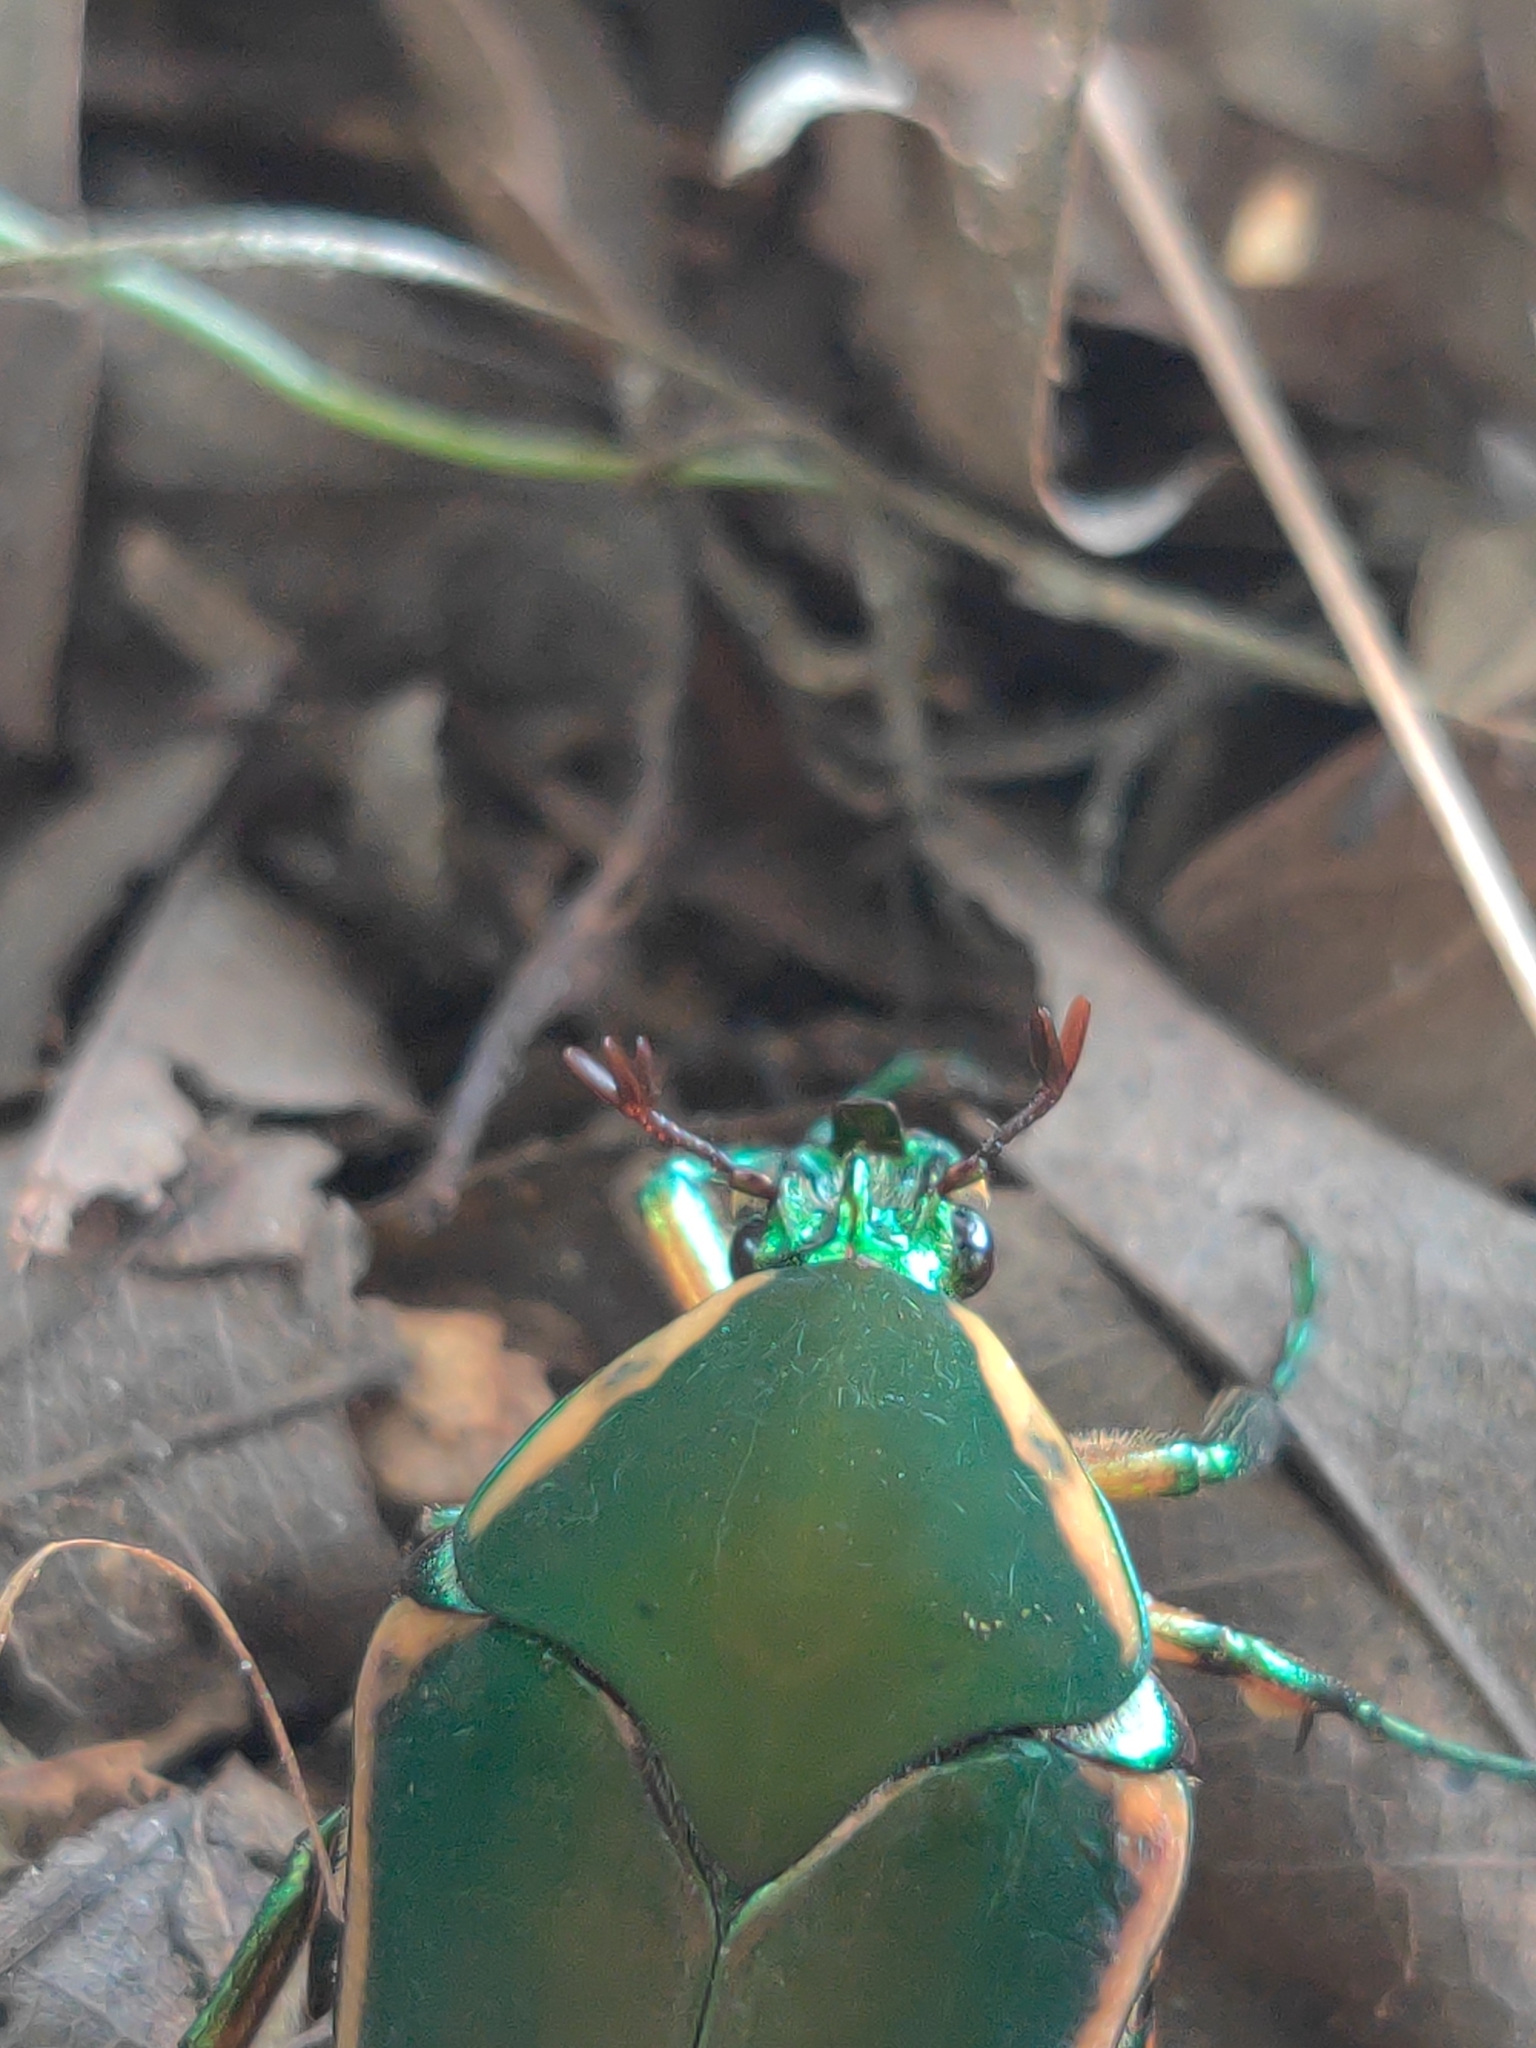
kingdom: Animalia
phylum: Arthropoda
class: Insecta
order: Coleoptera
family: Scarabaeidae
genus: Cotinis
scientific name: Cotinis nitida
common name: Common green june beetle
